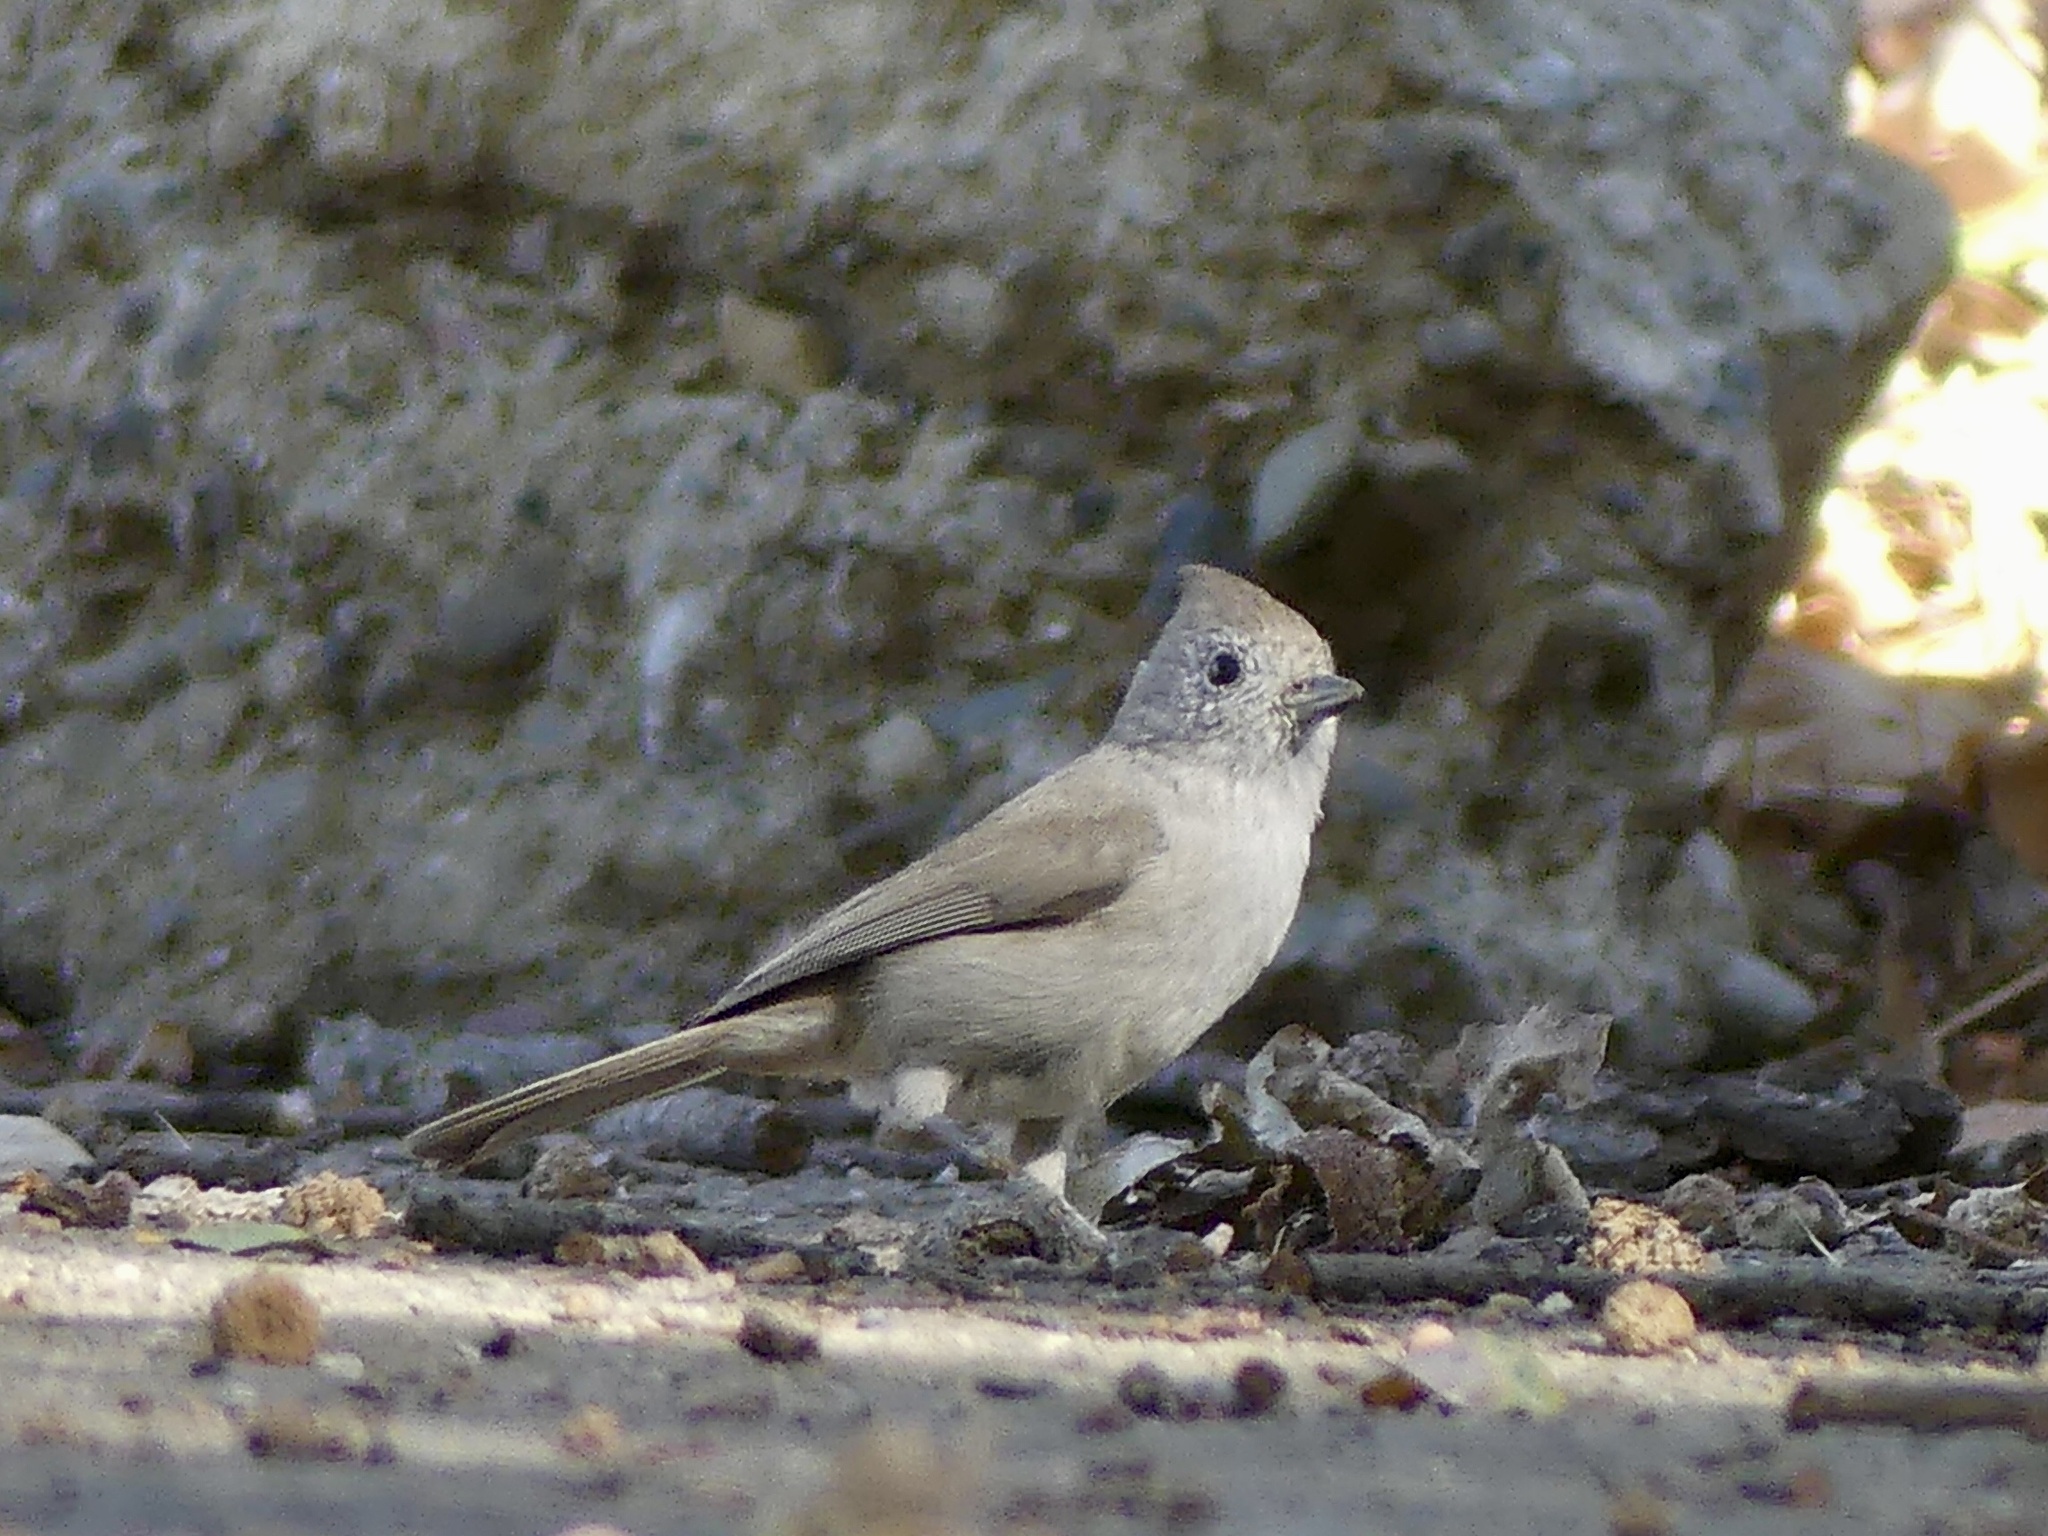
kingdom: Animalia
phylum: Chordata
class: Aves
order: Passeriformes
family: Paridae
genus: Baeolophus
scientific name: Baeolophus inornatus
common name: Oak titmouse
